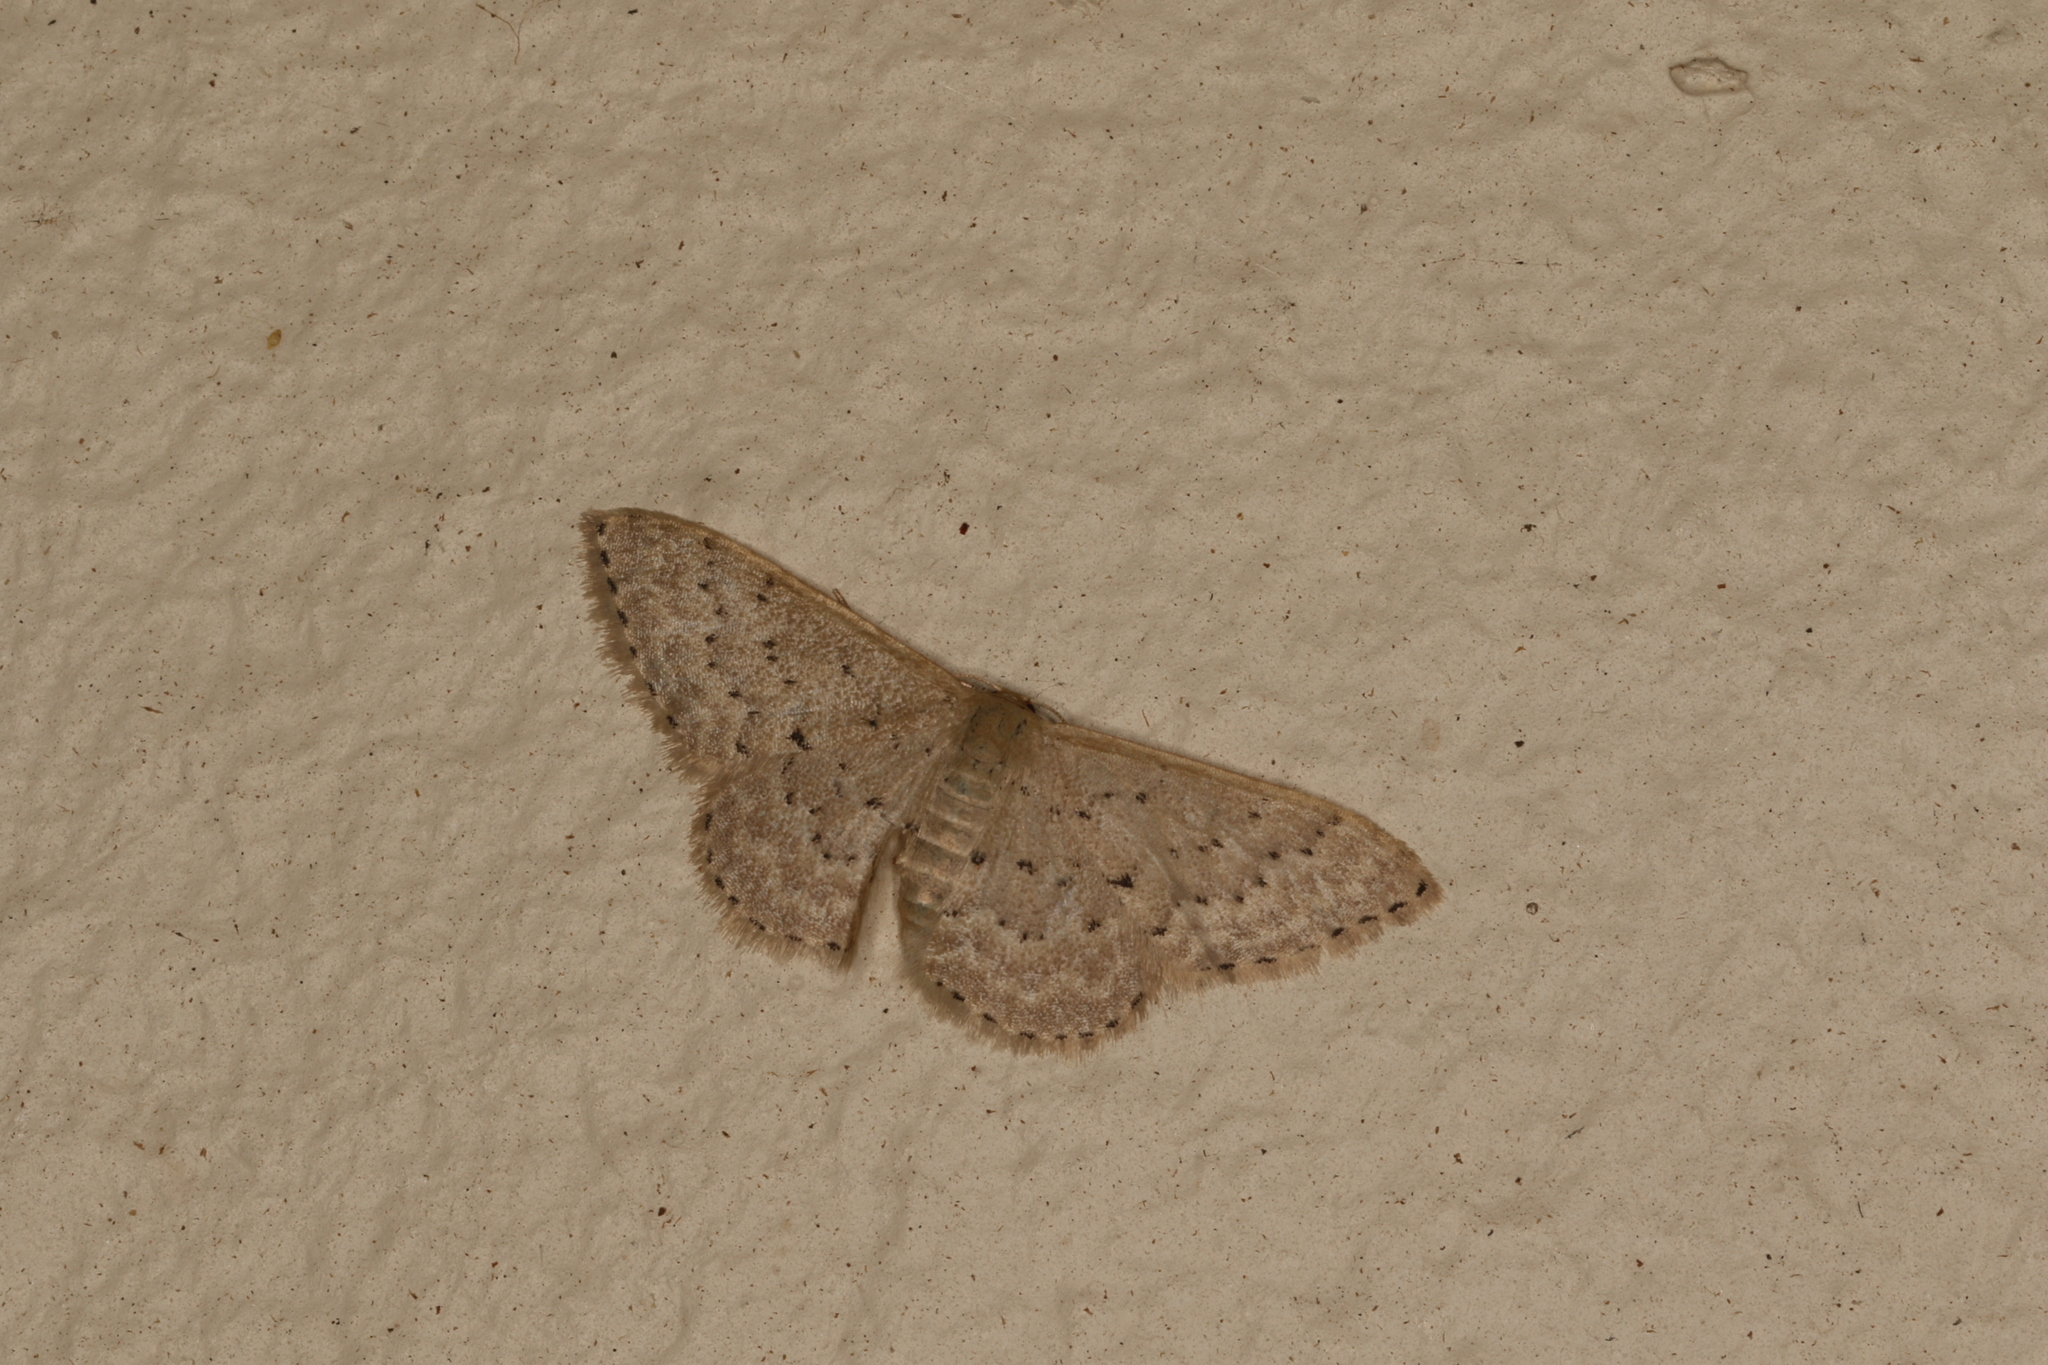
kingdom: Animalia
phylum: Arthropoda
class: Insecta
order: Lepidoptera
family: Geometridae
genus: Idaea
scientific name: Idaea philocosma
